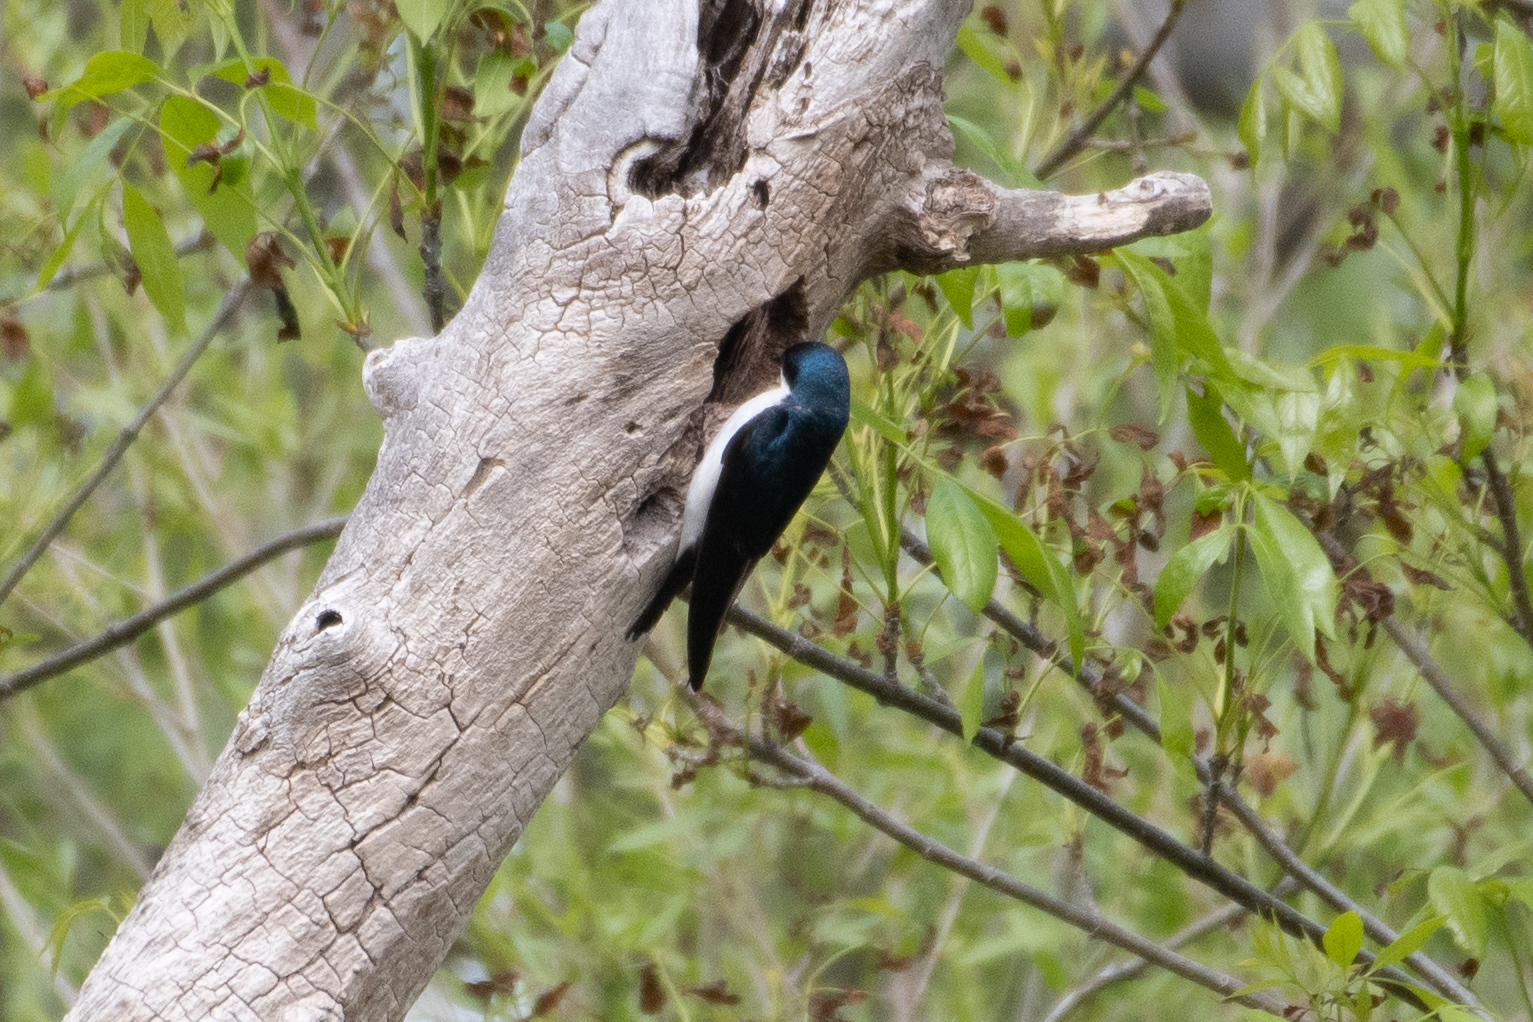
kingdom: Animalia
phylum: Chordata
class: Aves
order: Passeriformes
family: Hirundinidae
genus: Tachycineta
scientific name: Tachycineta bicolor
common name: Tree swallow
